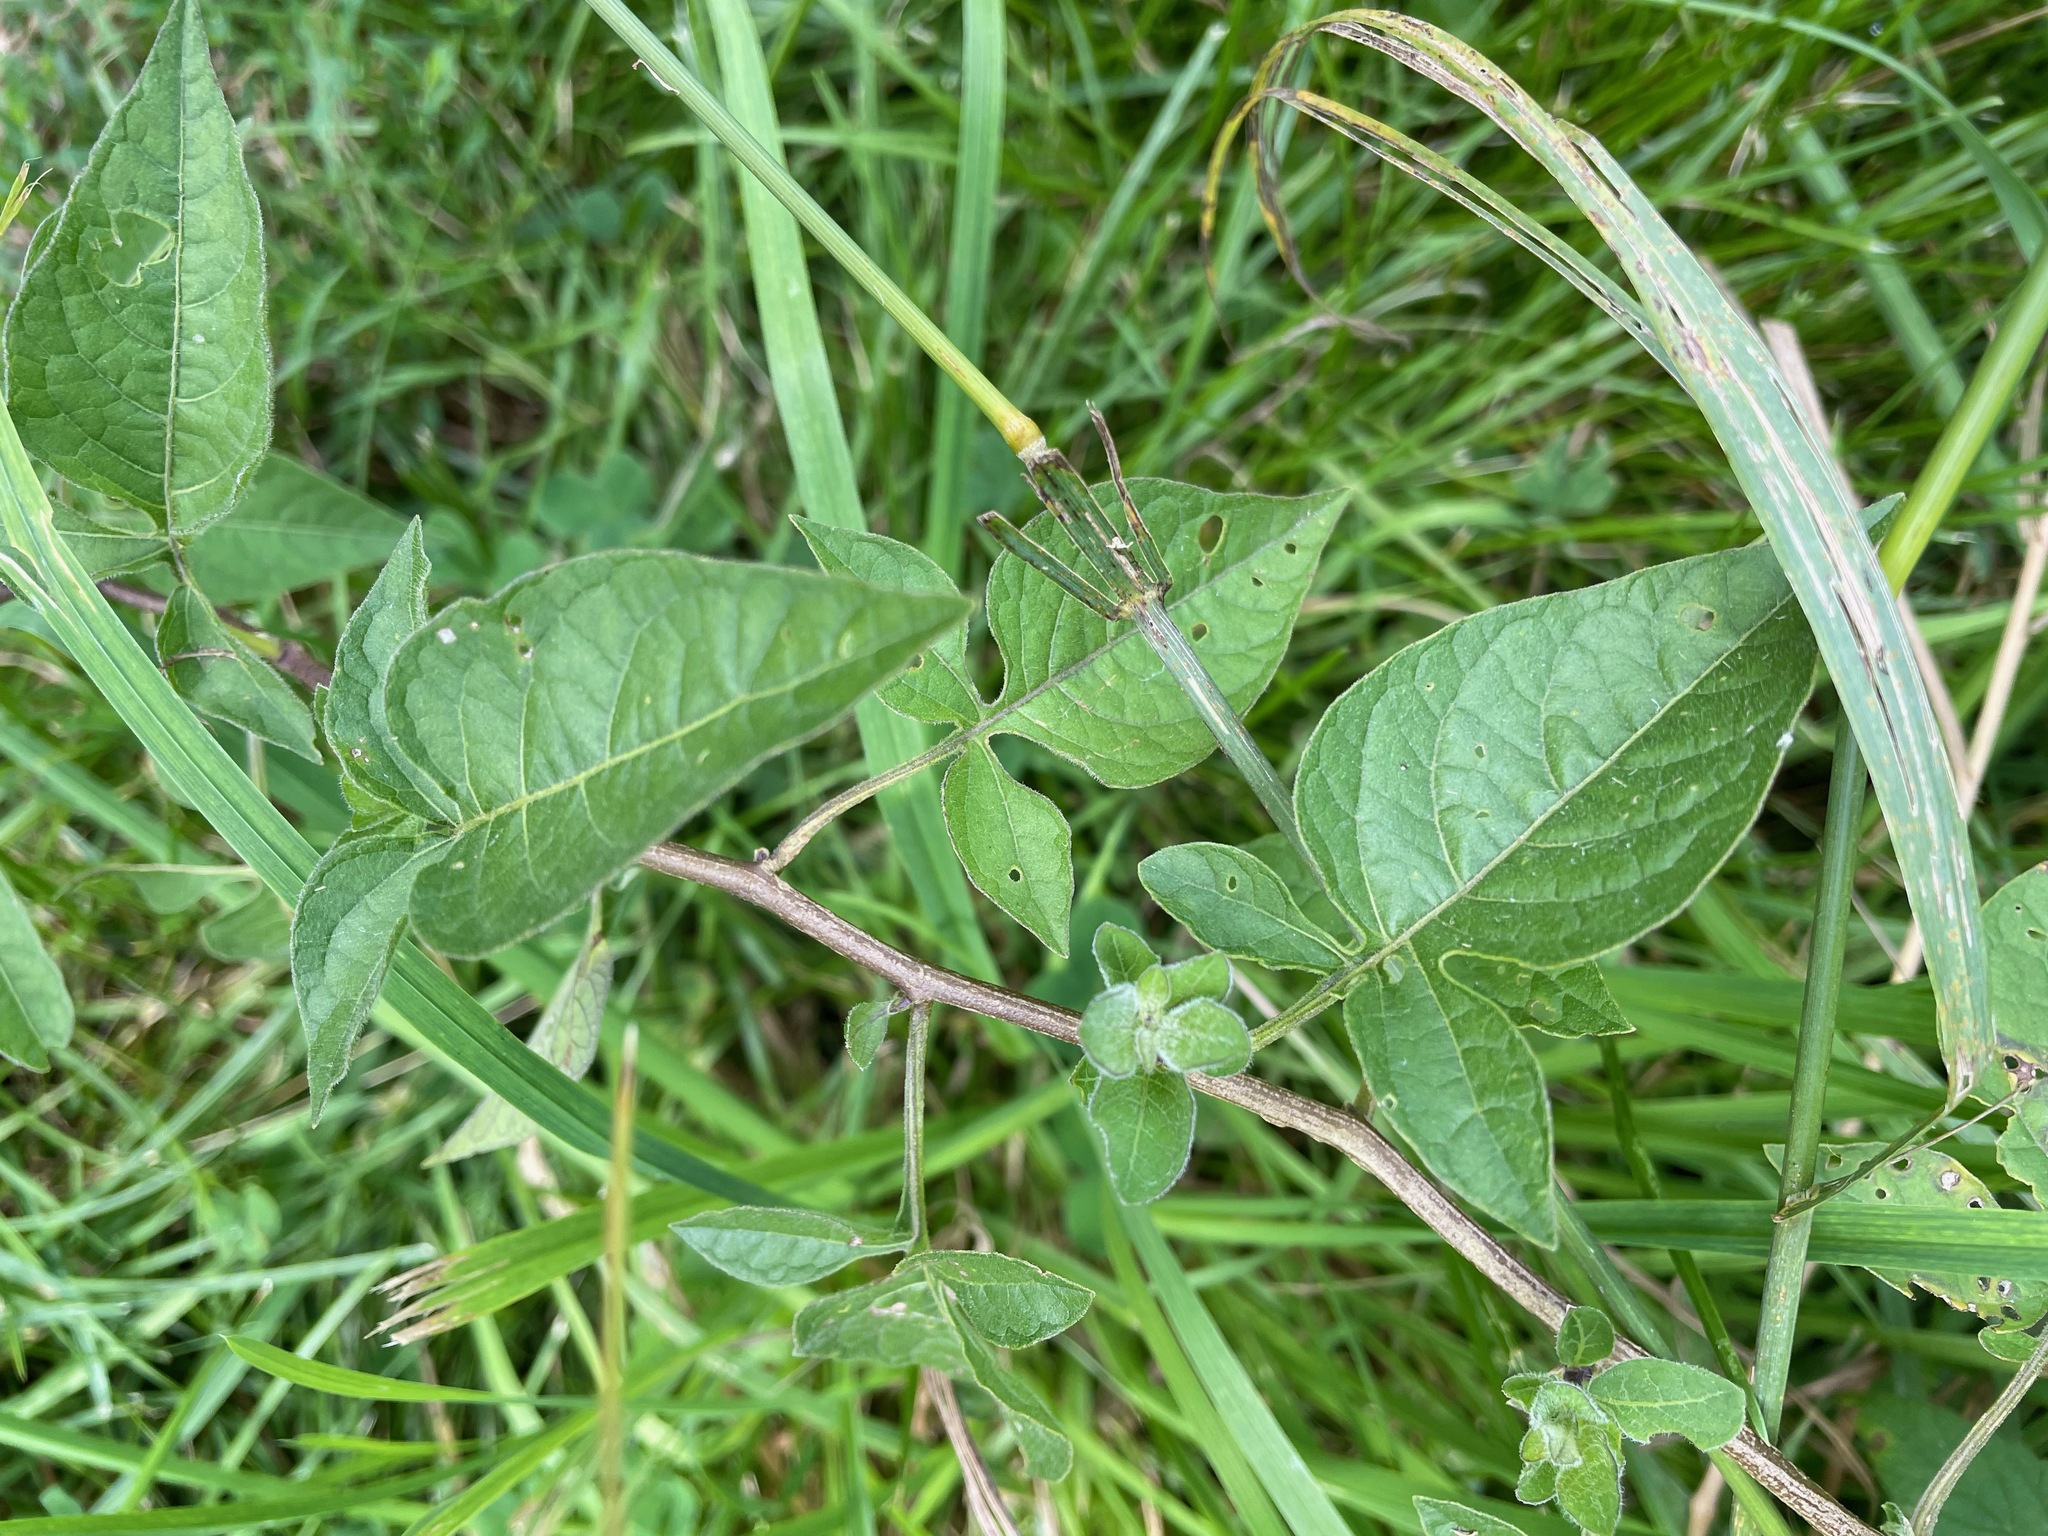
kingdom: Plantae
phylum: Tracheophyta
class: Magnoliopsida
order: Solanales
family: Solanaceae
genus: Solanum
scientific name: Solanum dulcamara
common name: Climbing nightshade
